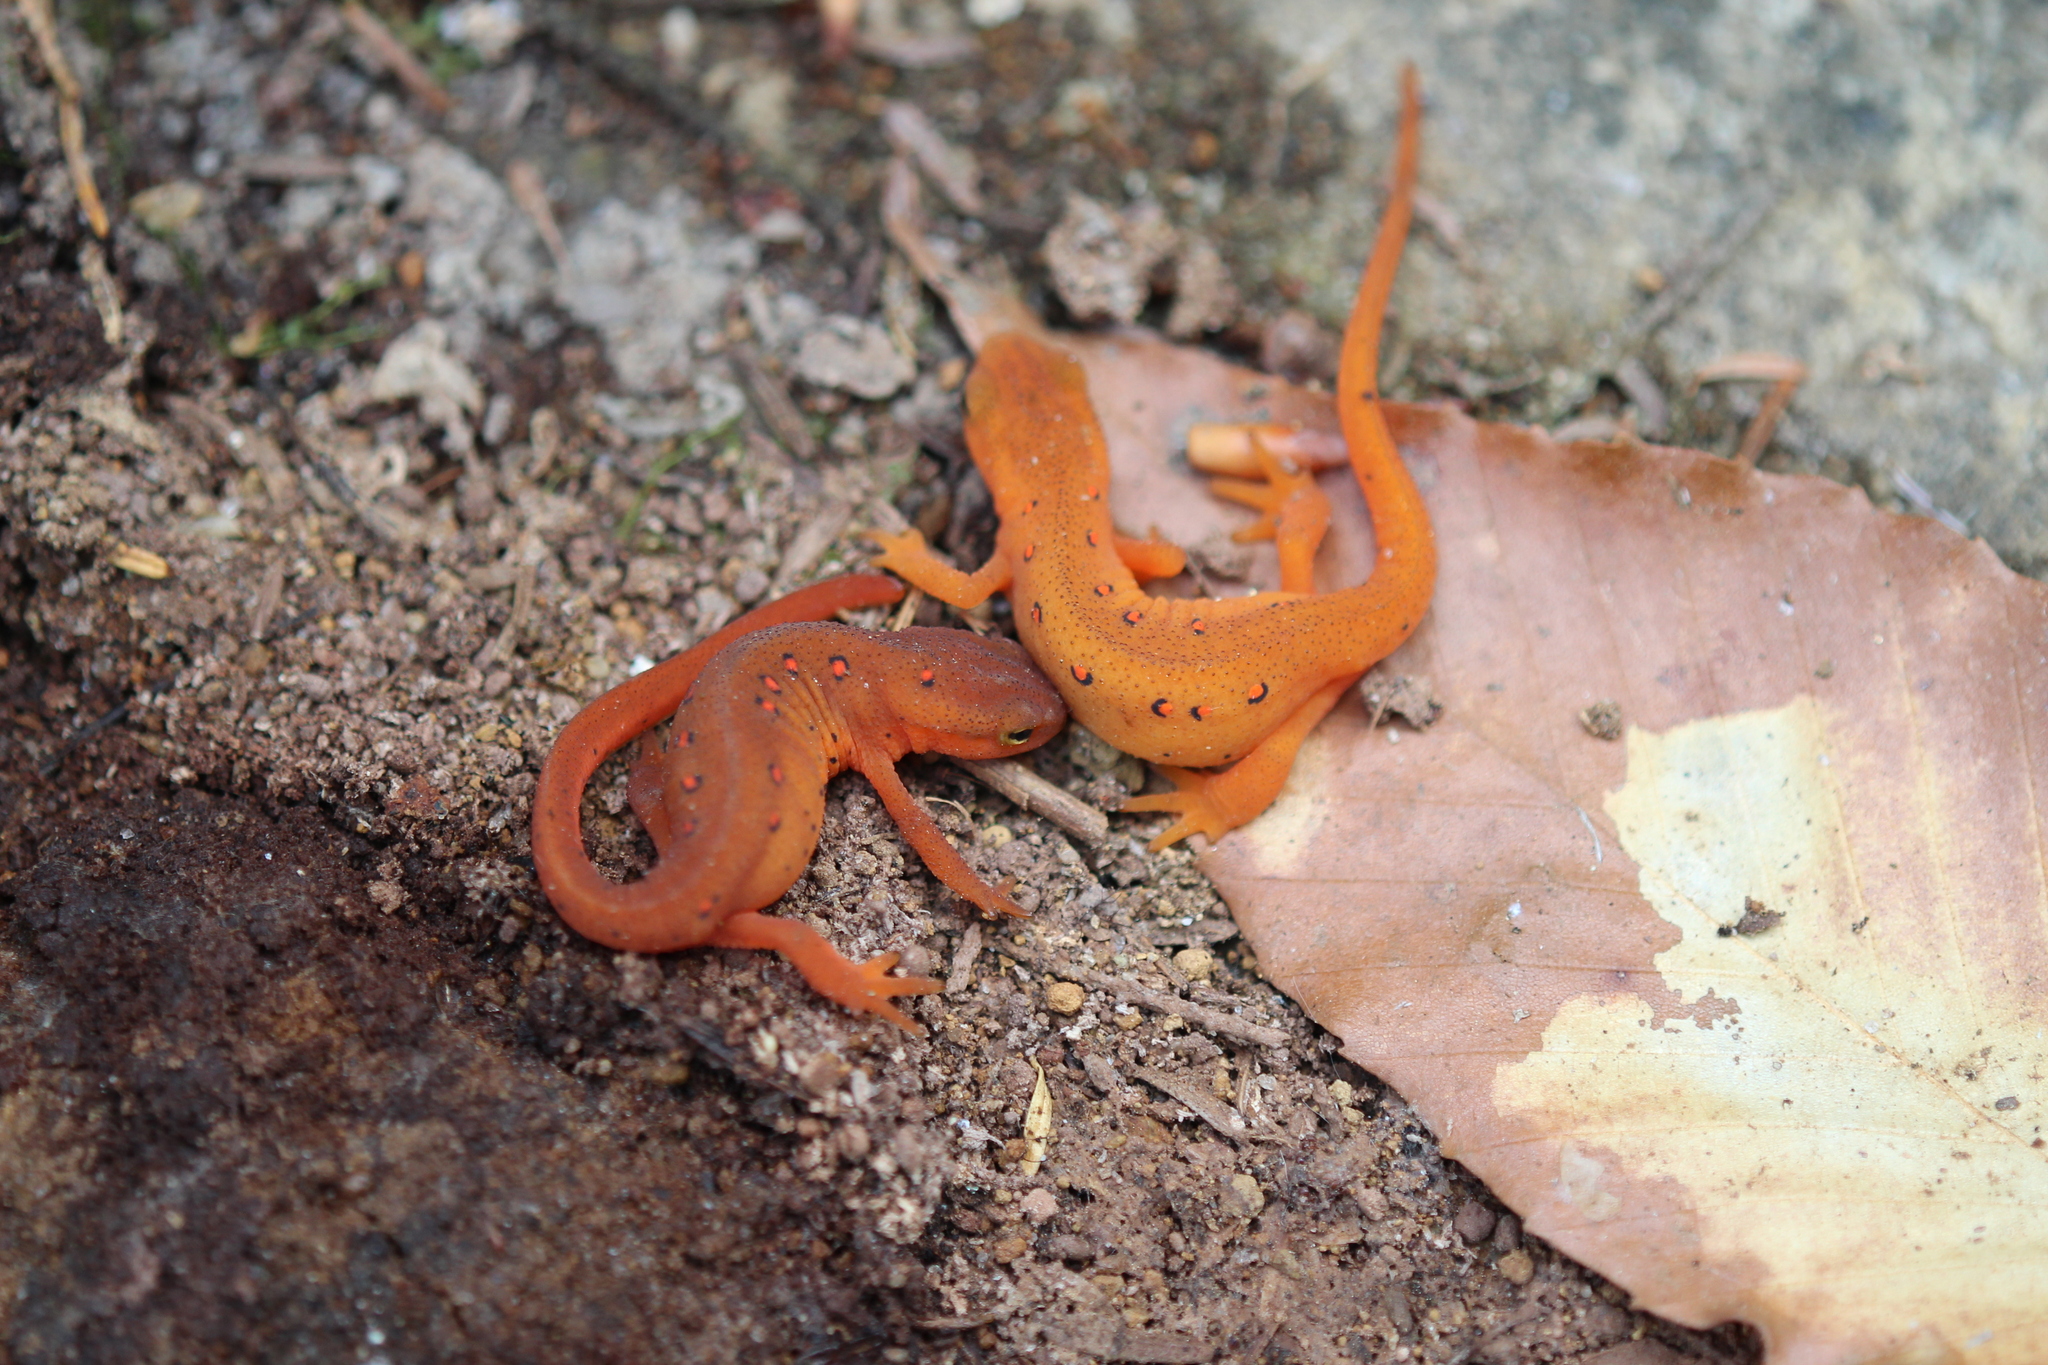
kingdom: Animalia
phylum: Chordata
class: Amphibia
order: Caudata
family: Salamandridae
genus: Notophthalmus
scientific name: Notophthalmus viridescens
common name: Eastern newt
